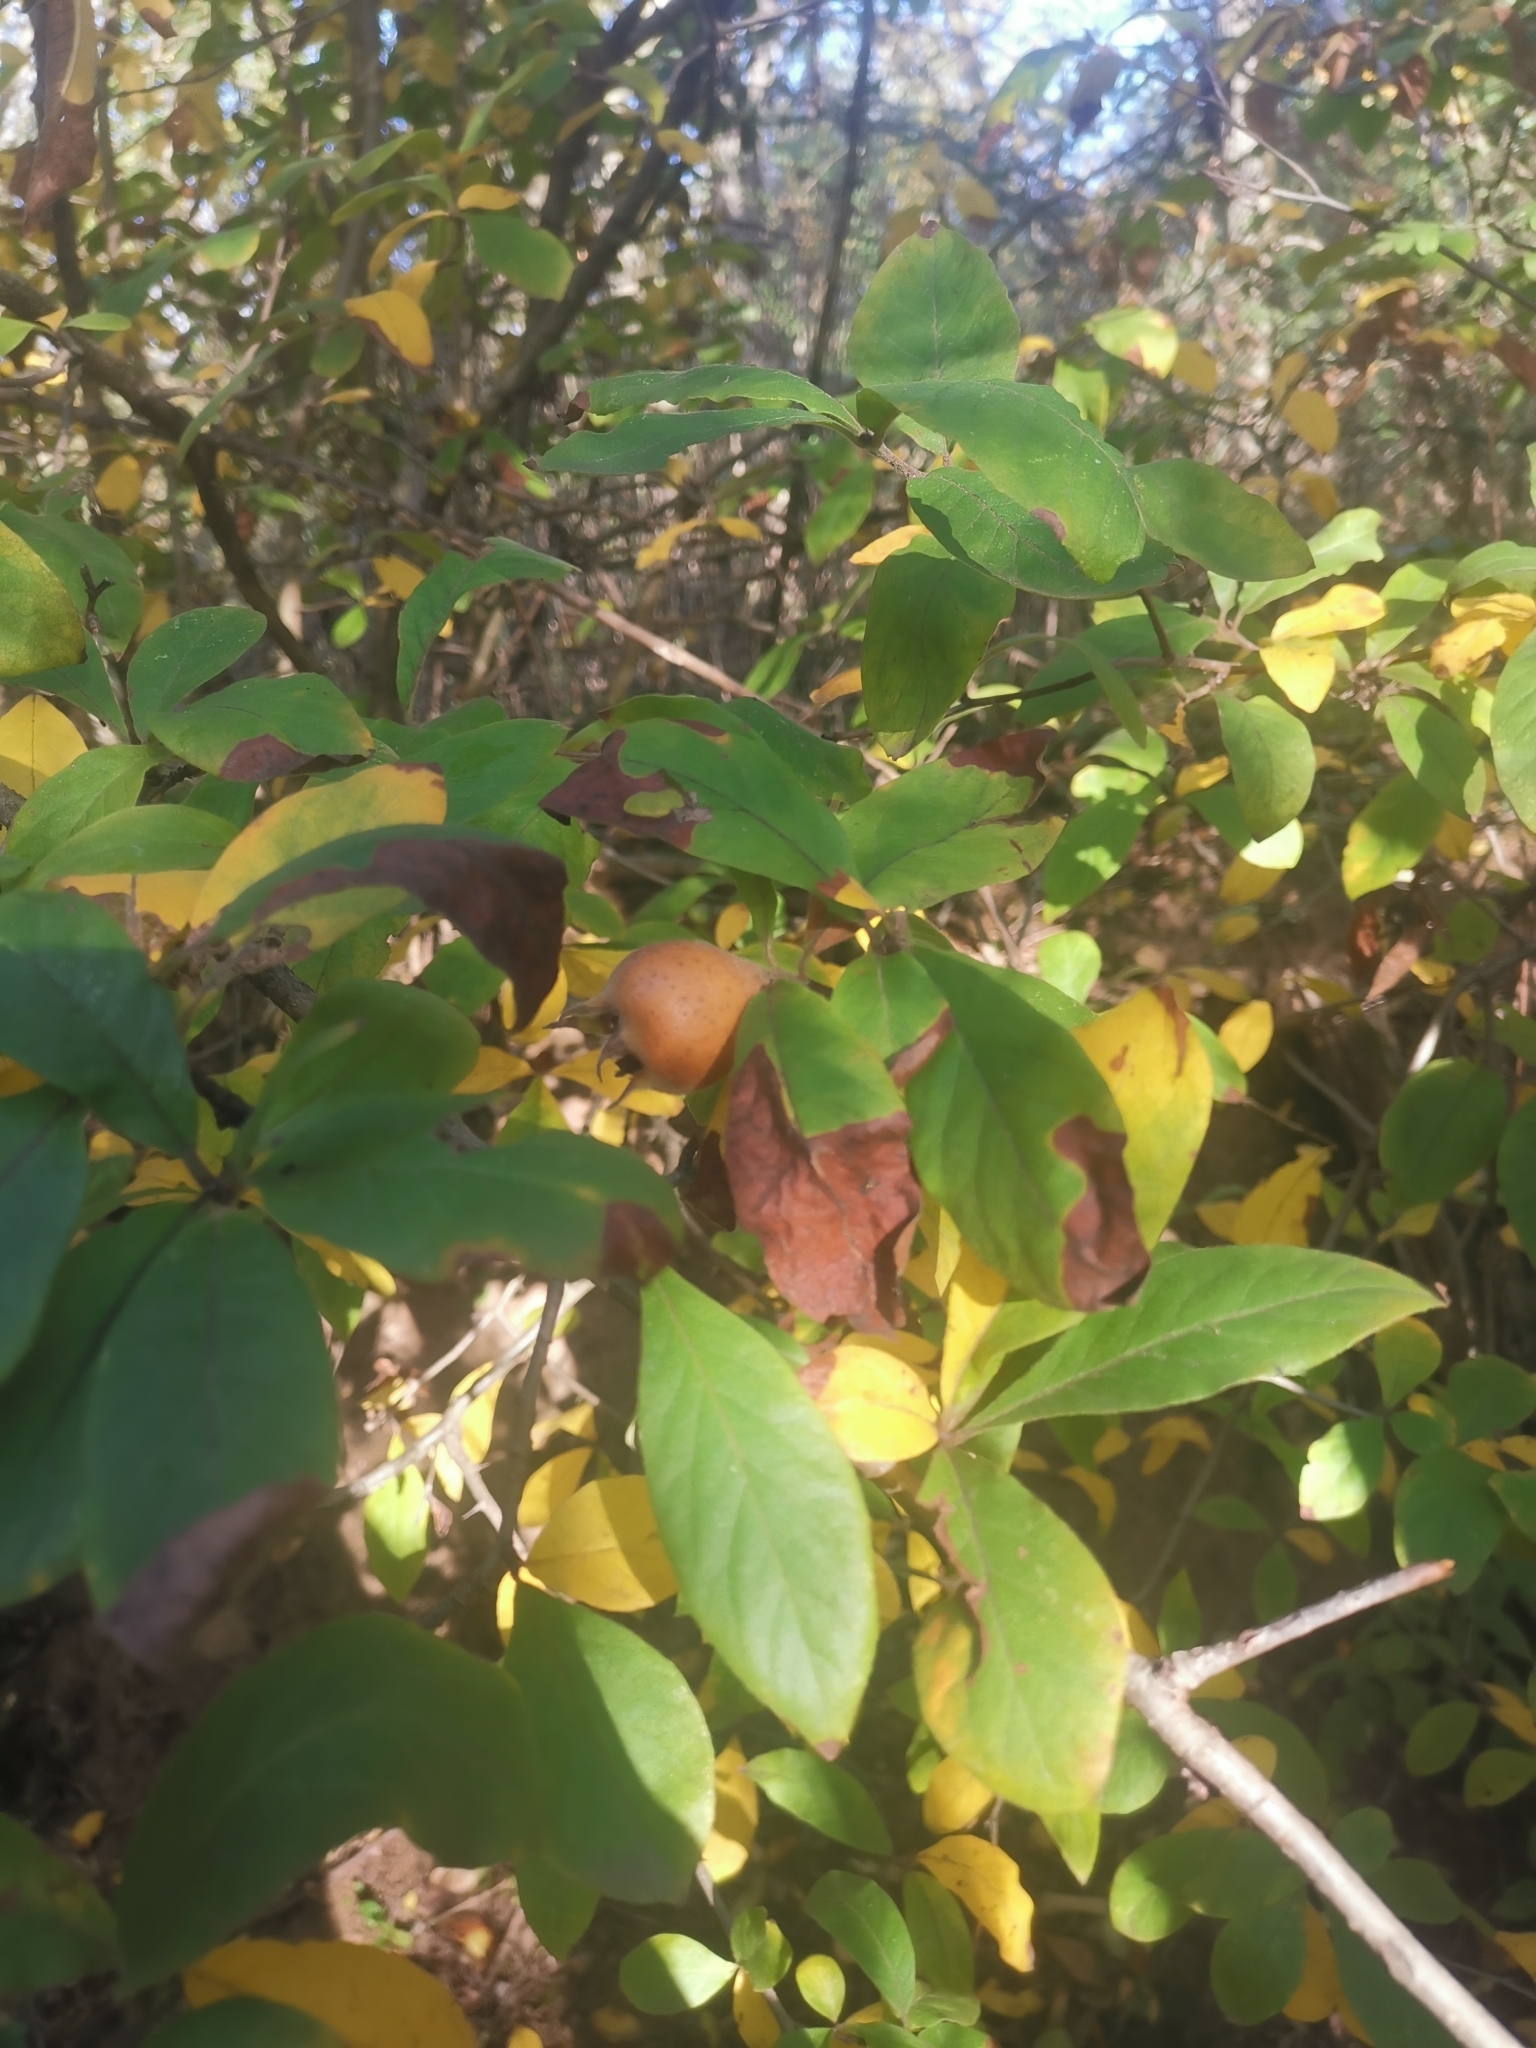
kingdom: Plantae
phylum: Tracheophyta
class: Magnoliopsida
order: Rosales
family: Rosaceae
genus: Mespilus
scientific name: Mespilus germanica
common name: Medlar
